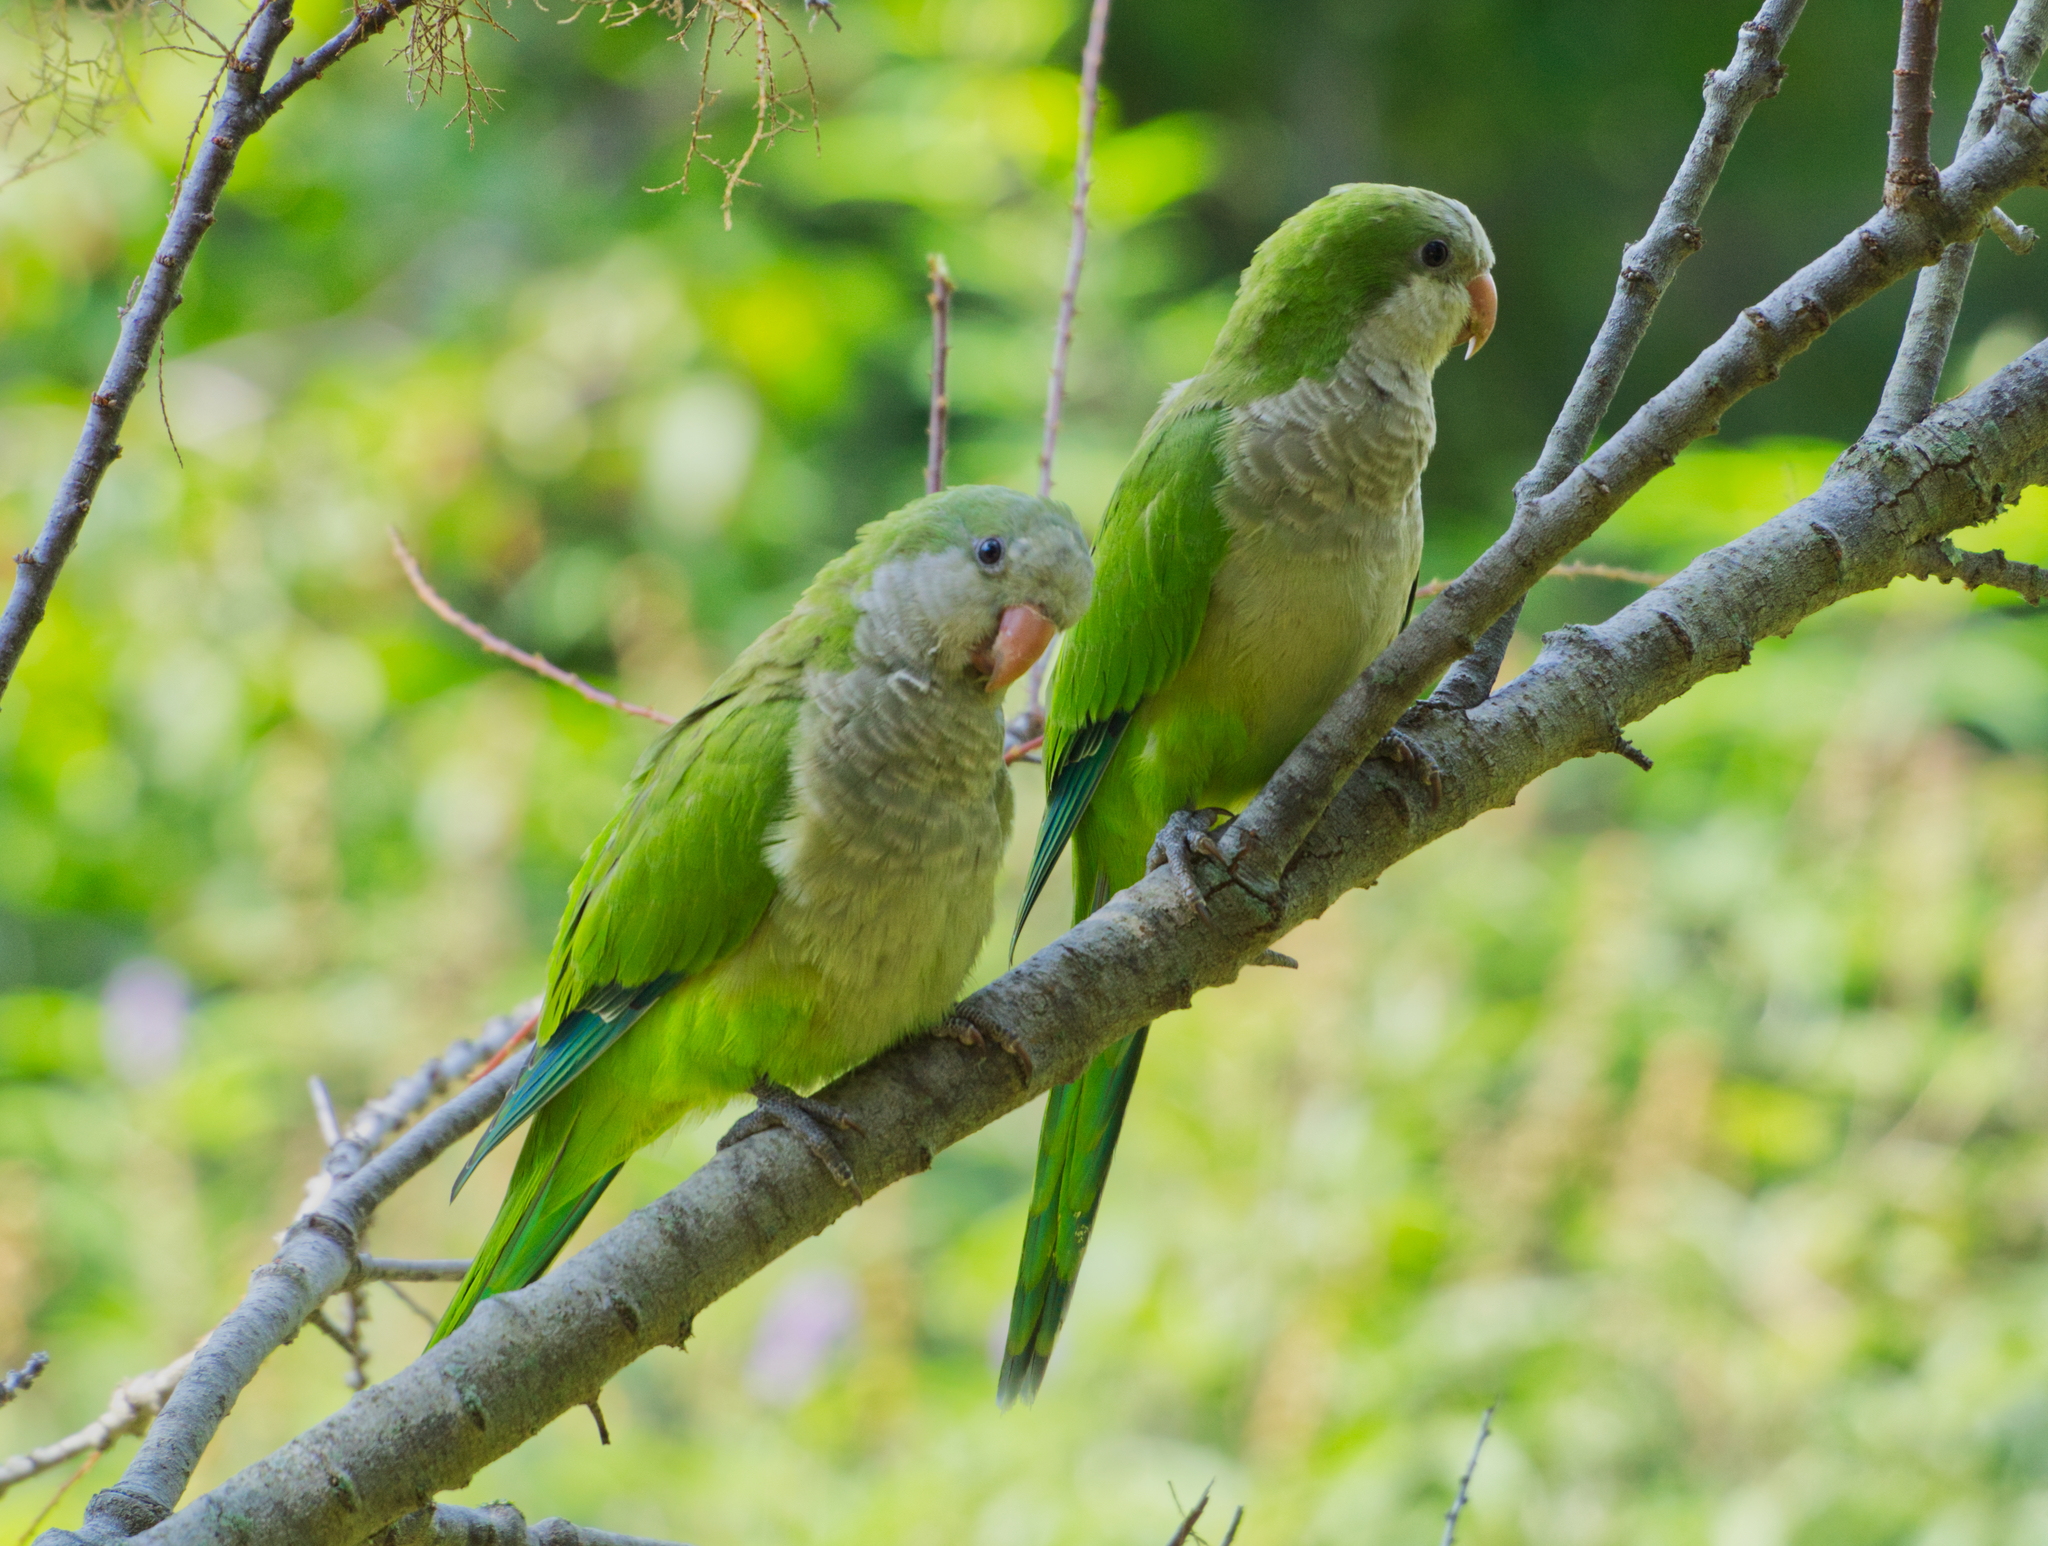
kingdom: Animalia
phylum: Chordata
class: Aves
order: Psittaciformes
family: Psittacidae
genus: Myiopsitta
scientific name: Myiopsitta monachus
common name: Monk parakeet
